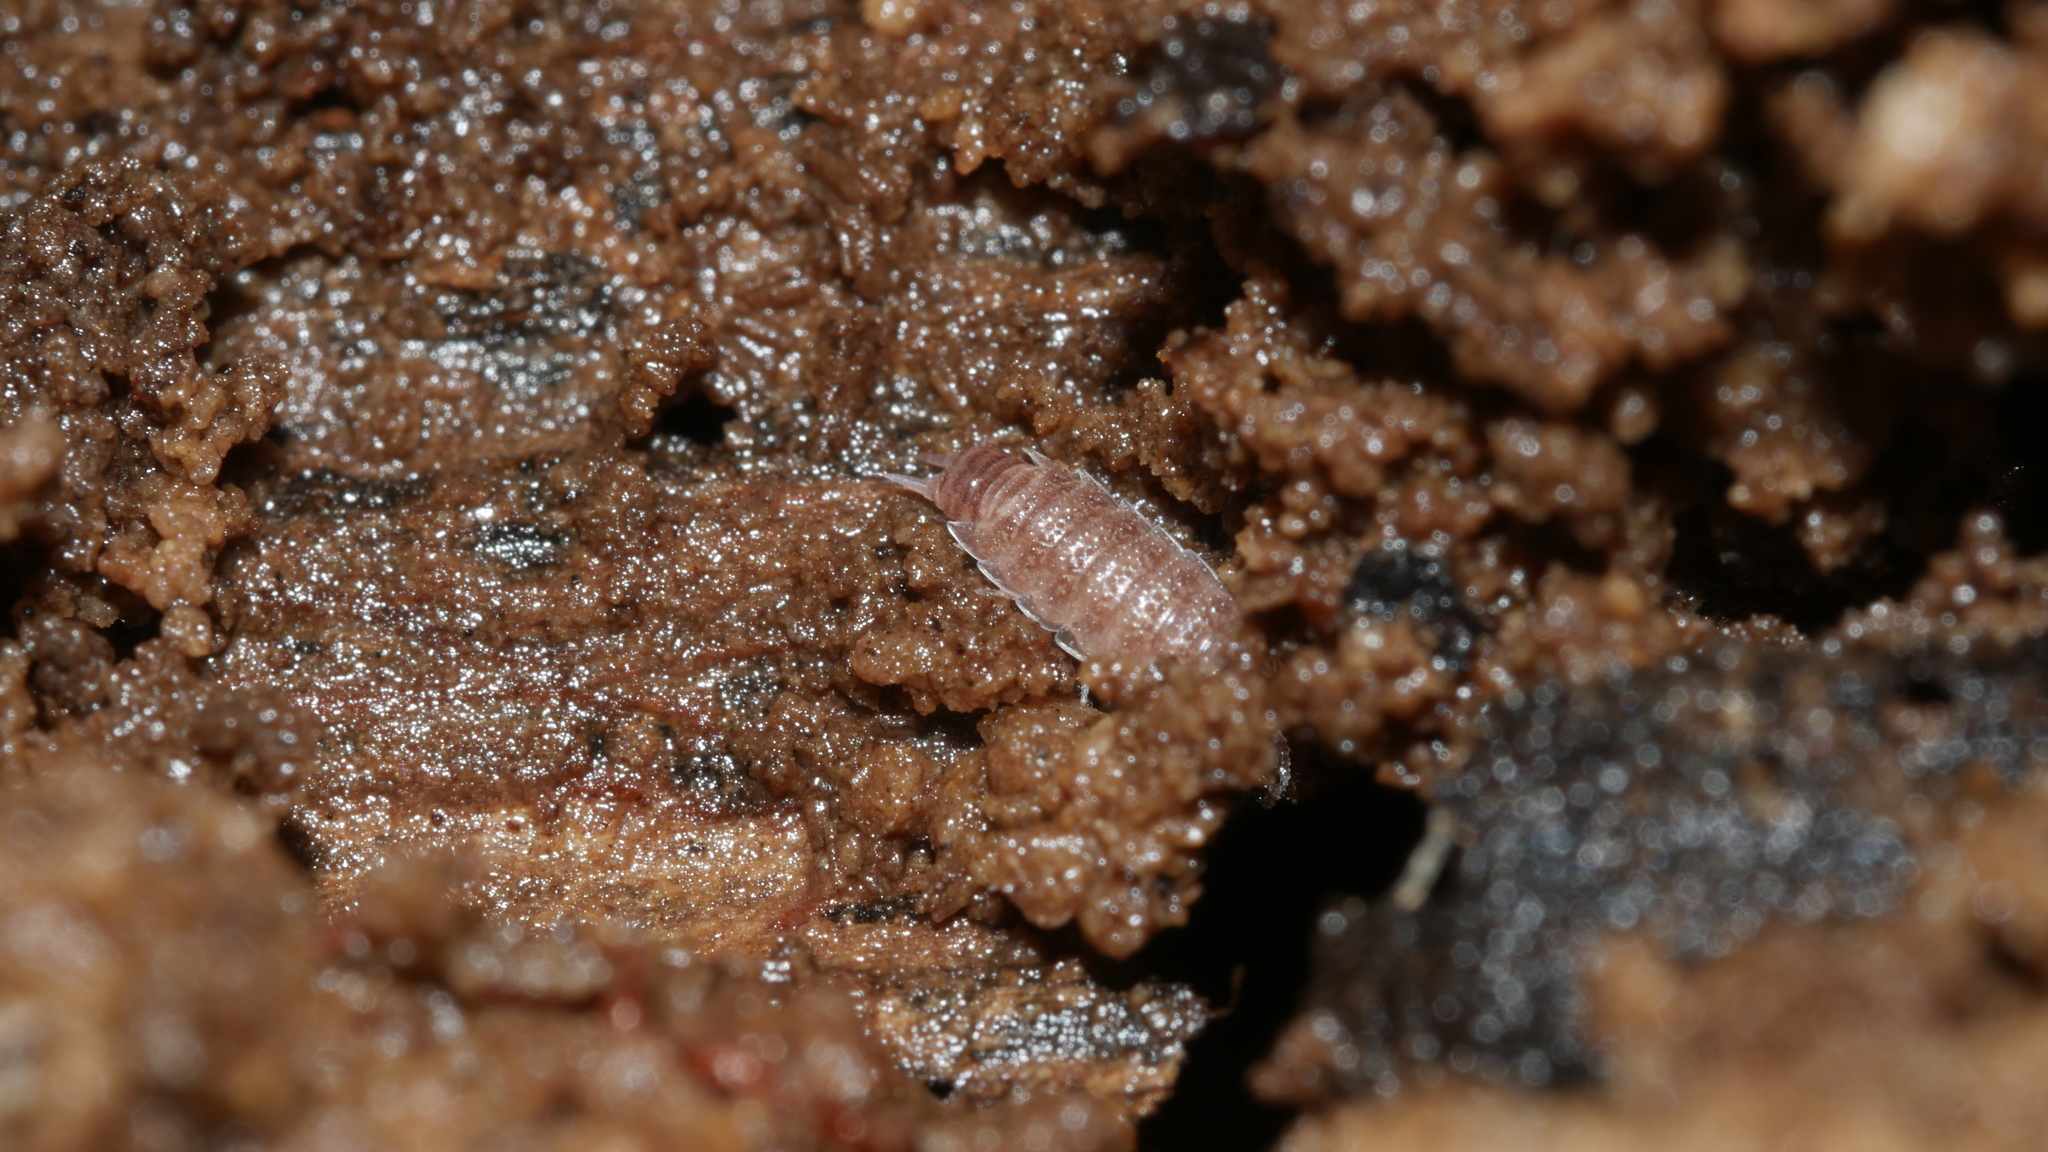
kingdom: Animalia
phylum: Arthropoda
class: Malacostraca
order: Isopoda
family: Trichoniscidae
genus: Miktoniscus
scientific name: Miktoniscus spinosus
